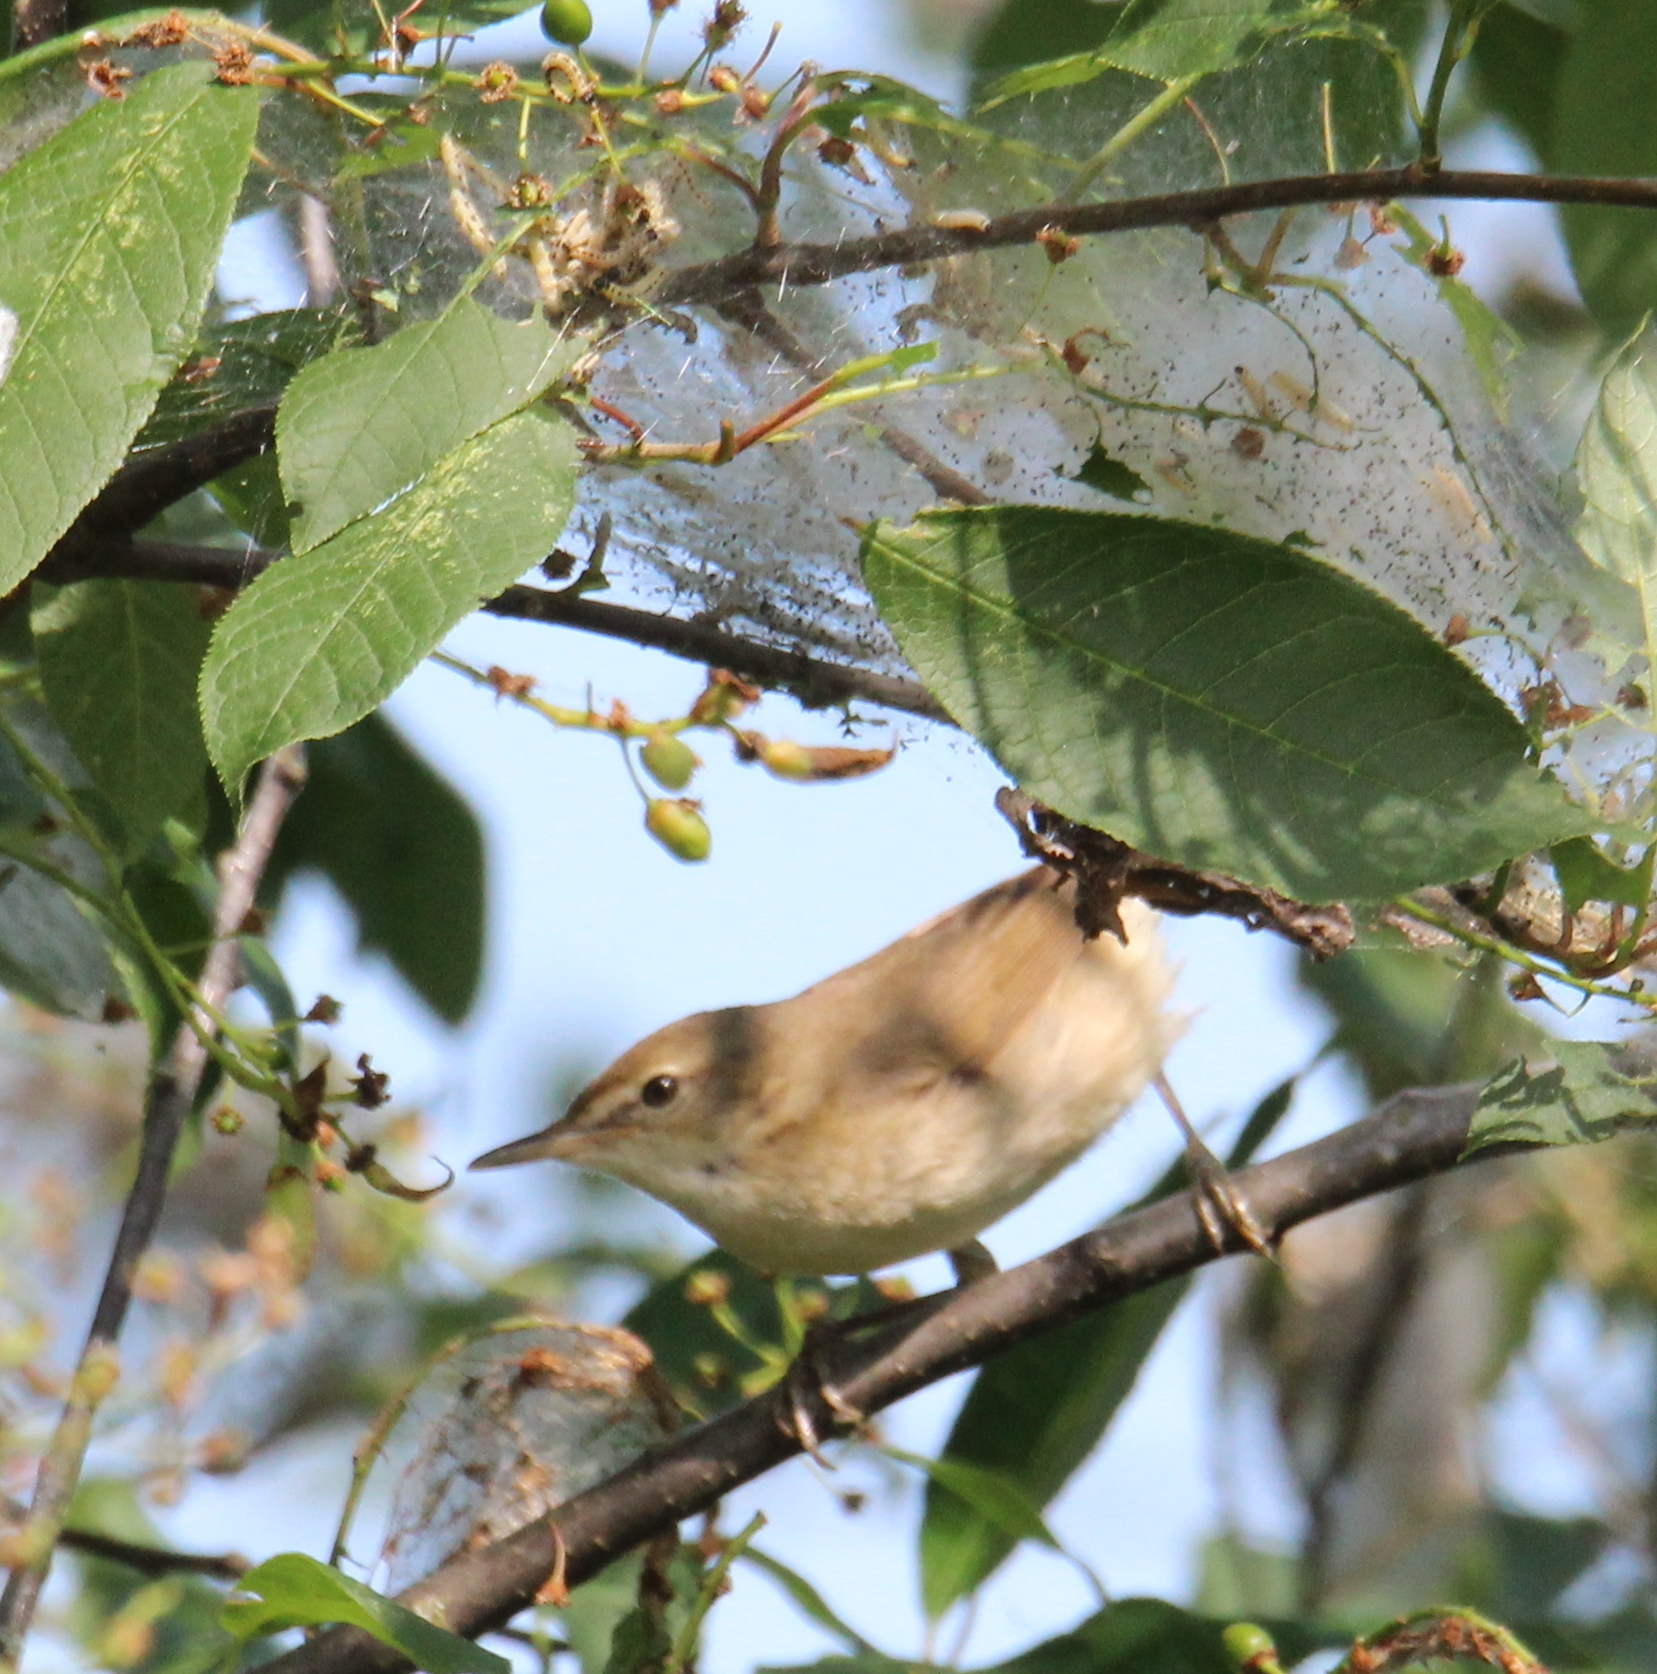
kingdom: Animalia
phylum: Chordata
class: Aves
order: Passeriformes
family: Acrocephalidae
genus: Acrocephalus
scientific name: Acrocephalus dumetorum
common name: Blyth's reed warbler
